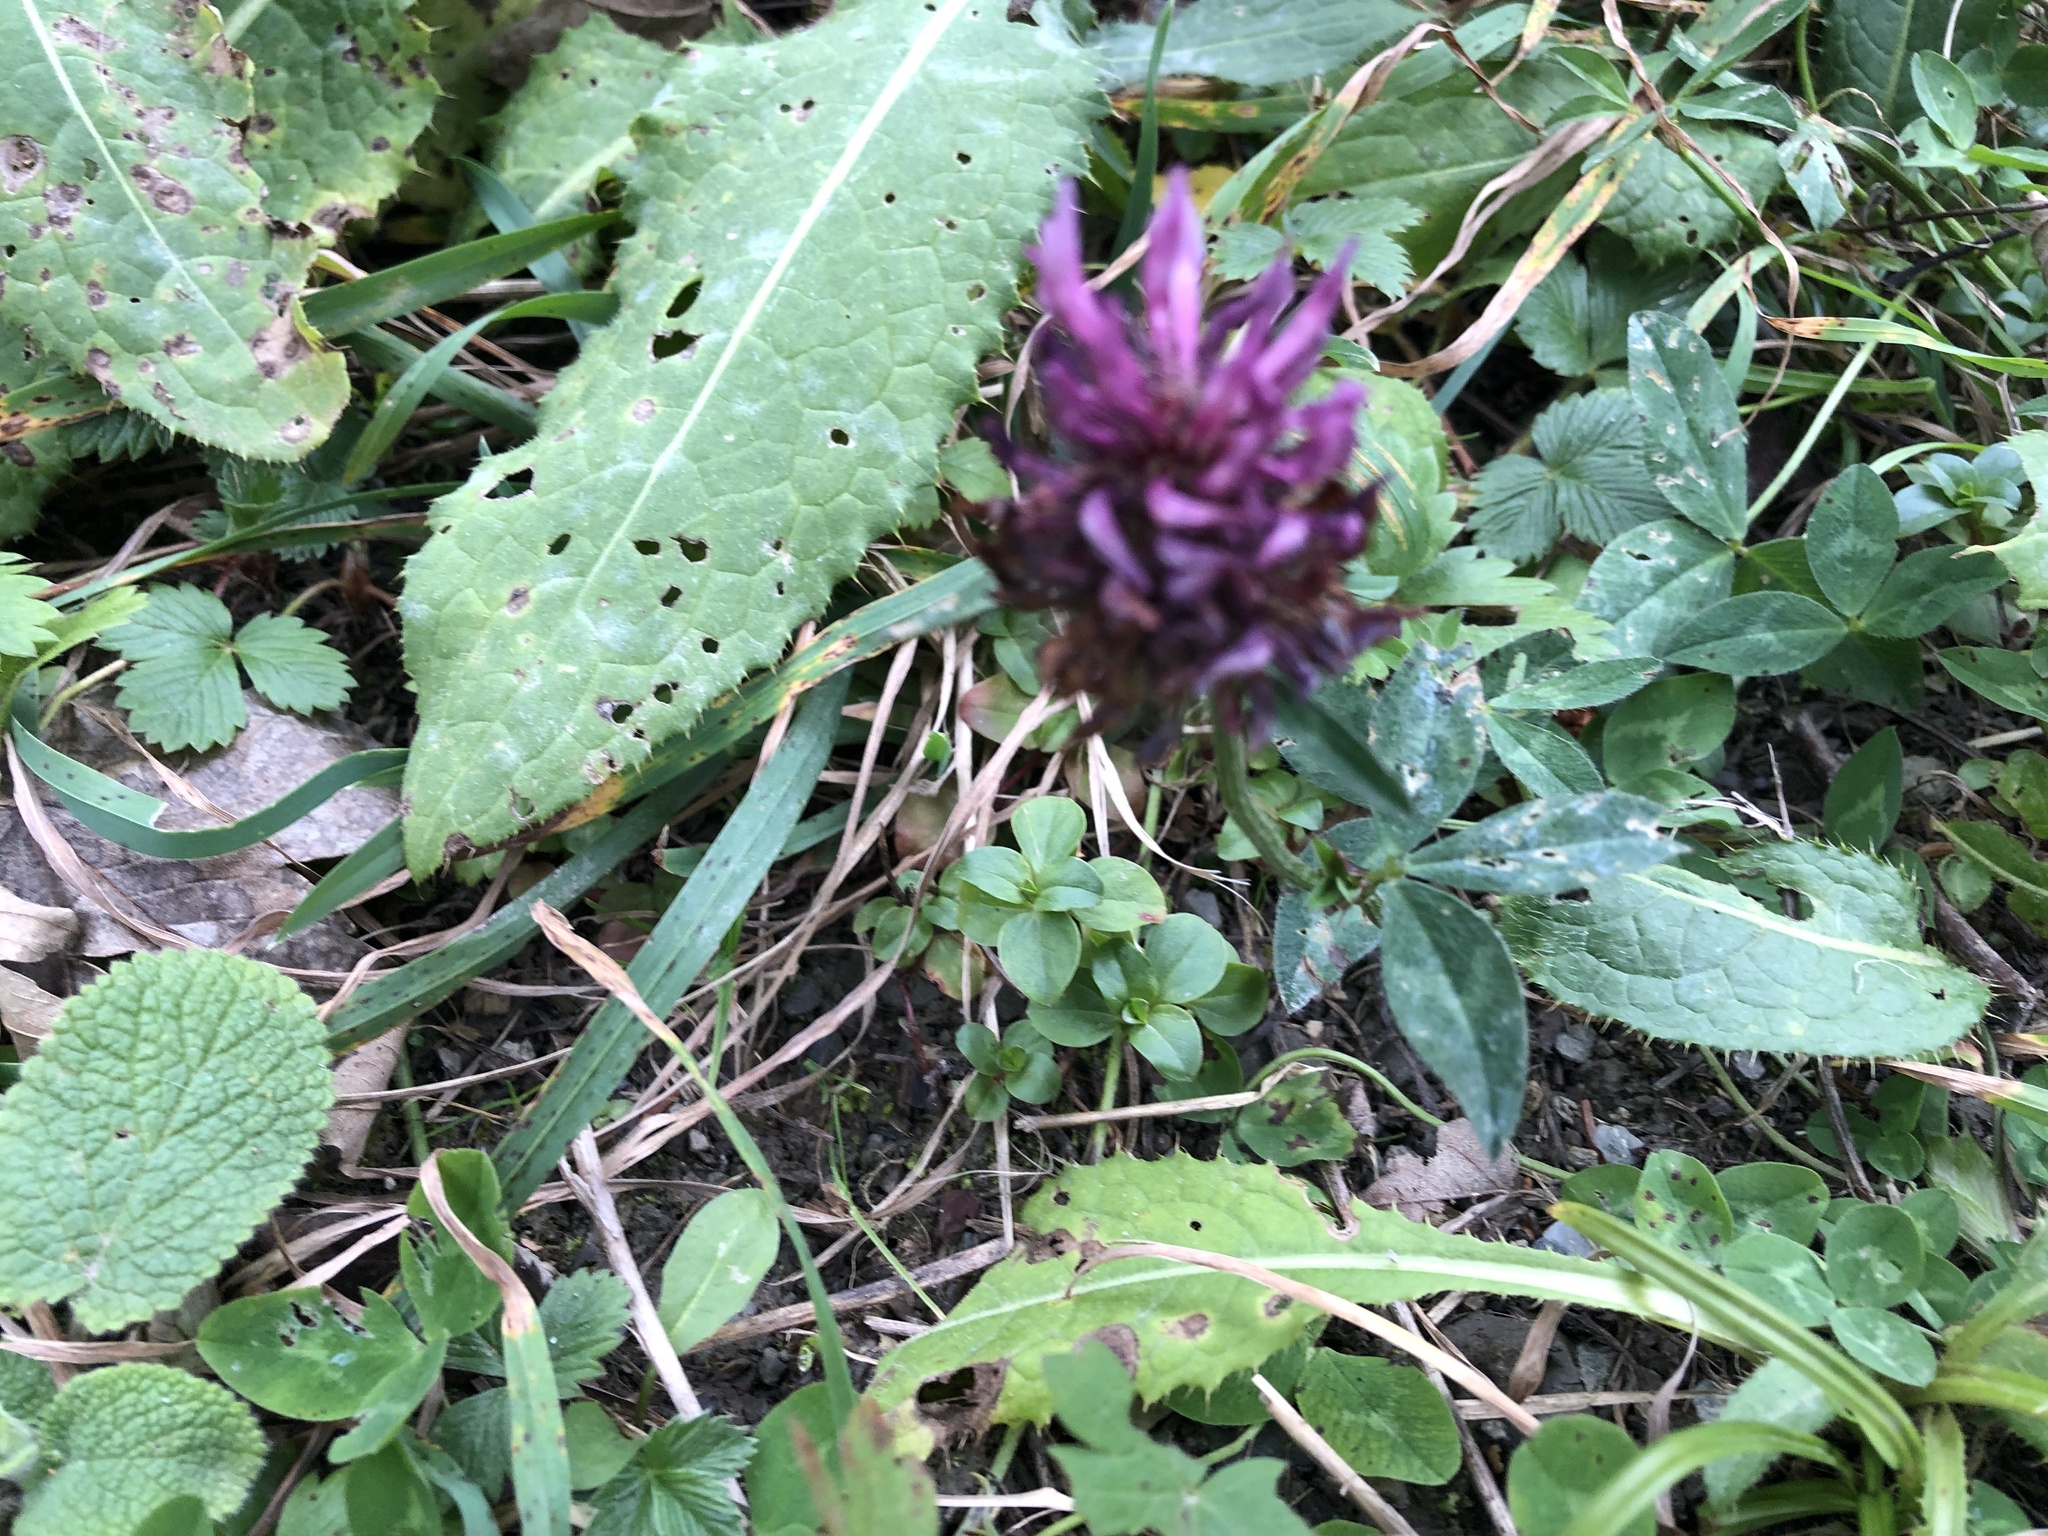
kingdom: Plantae
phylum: Tracheophyta
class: Magnoliopsida
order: Fabales
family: Fabaceae
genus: Trifolium
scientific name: Trifolium pratense
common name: Red clover
